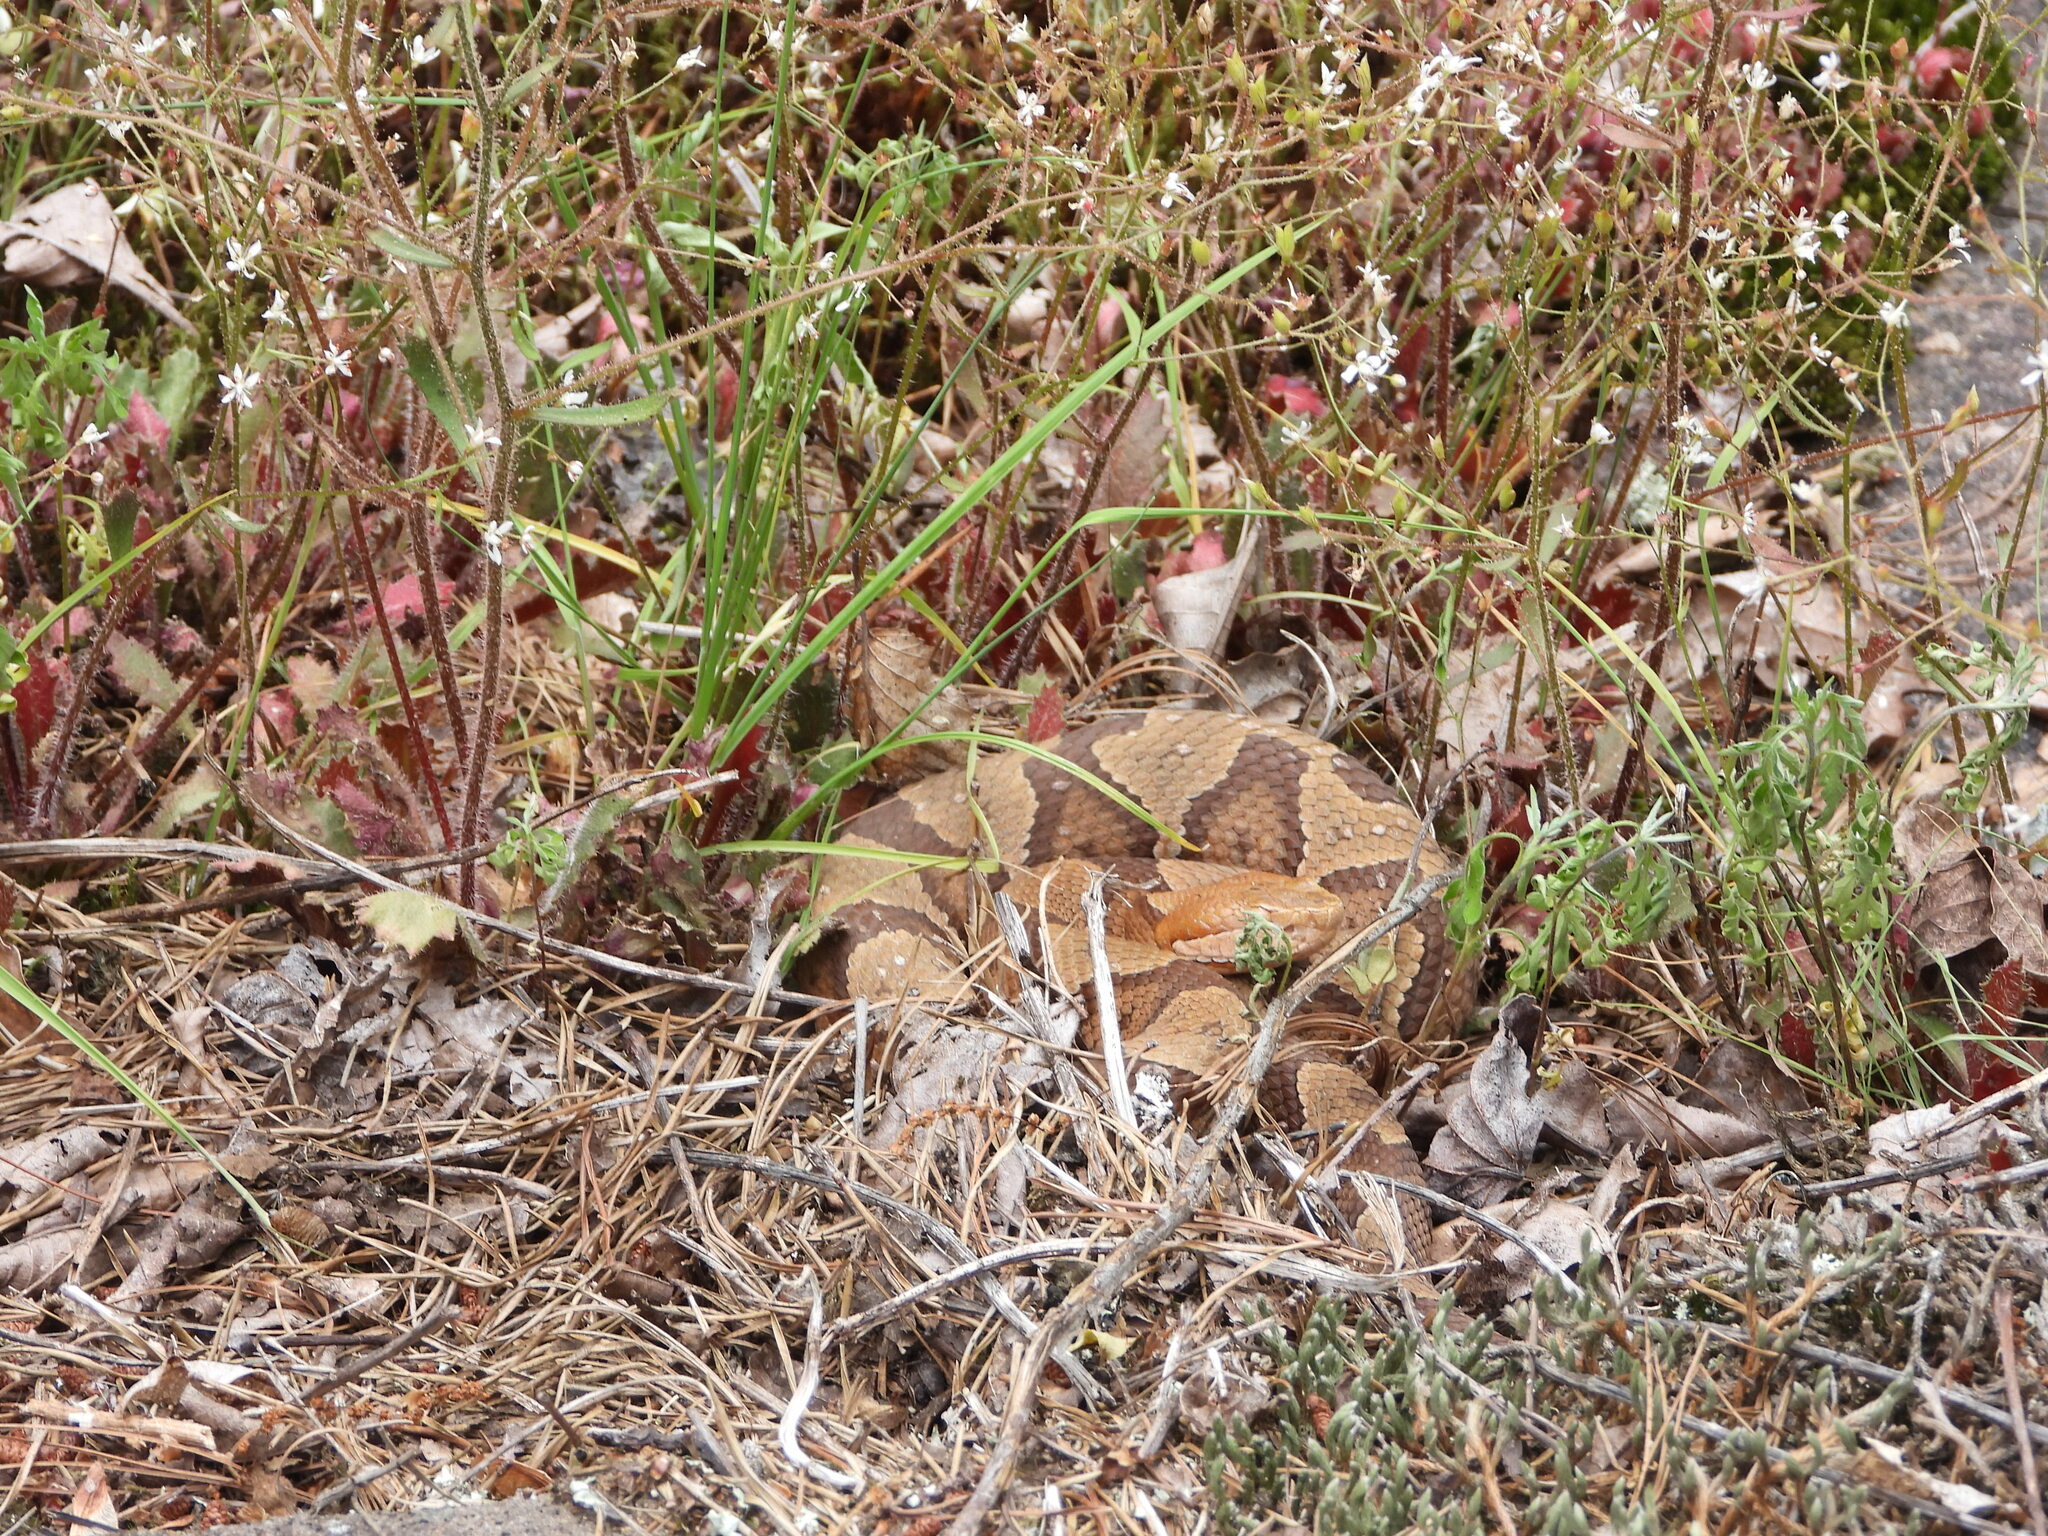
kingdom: Animalia
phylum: Chordata
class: Squamata
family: Viperidae
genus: Agkistrodon
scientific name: Agkistrodon contortrix
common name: Northern copperhead
